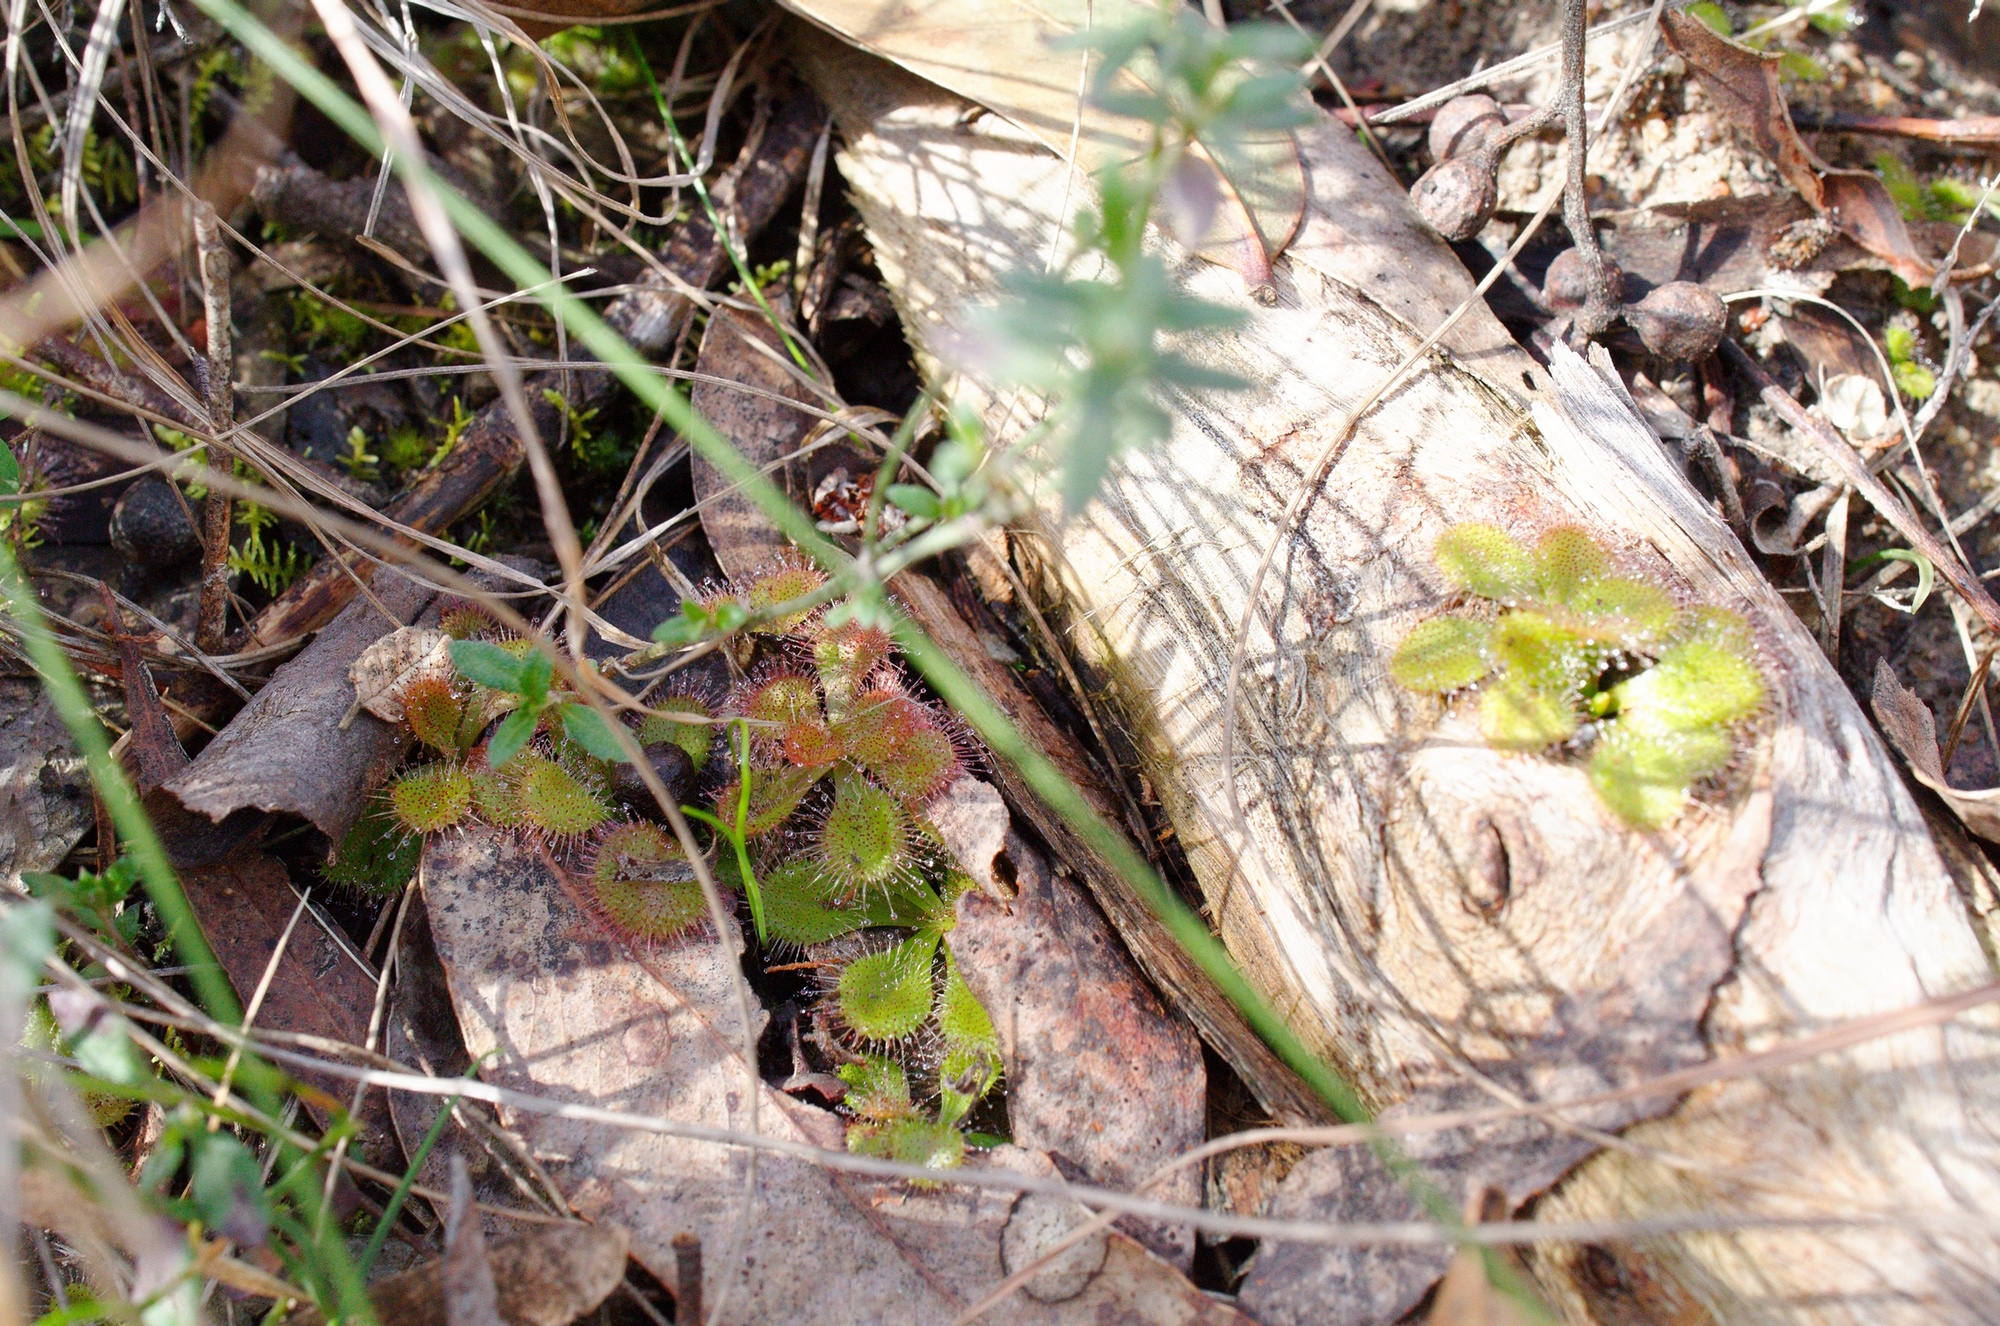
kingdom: Plantae
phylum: Tracheophyta
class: Magnoliopsida
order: Caryophyllales
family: Droseraceae
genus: Drosera
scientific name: Drosera aberrans
